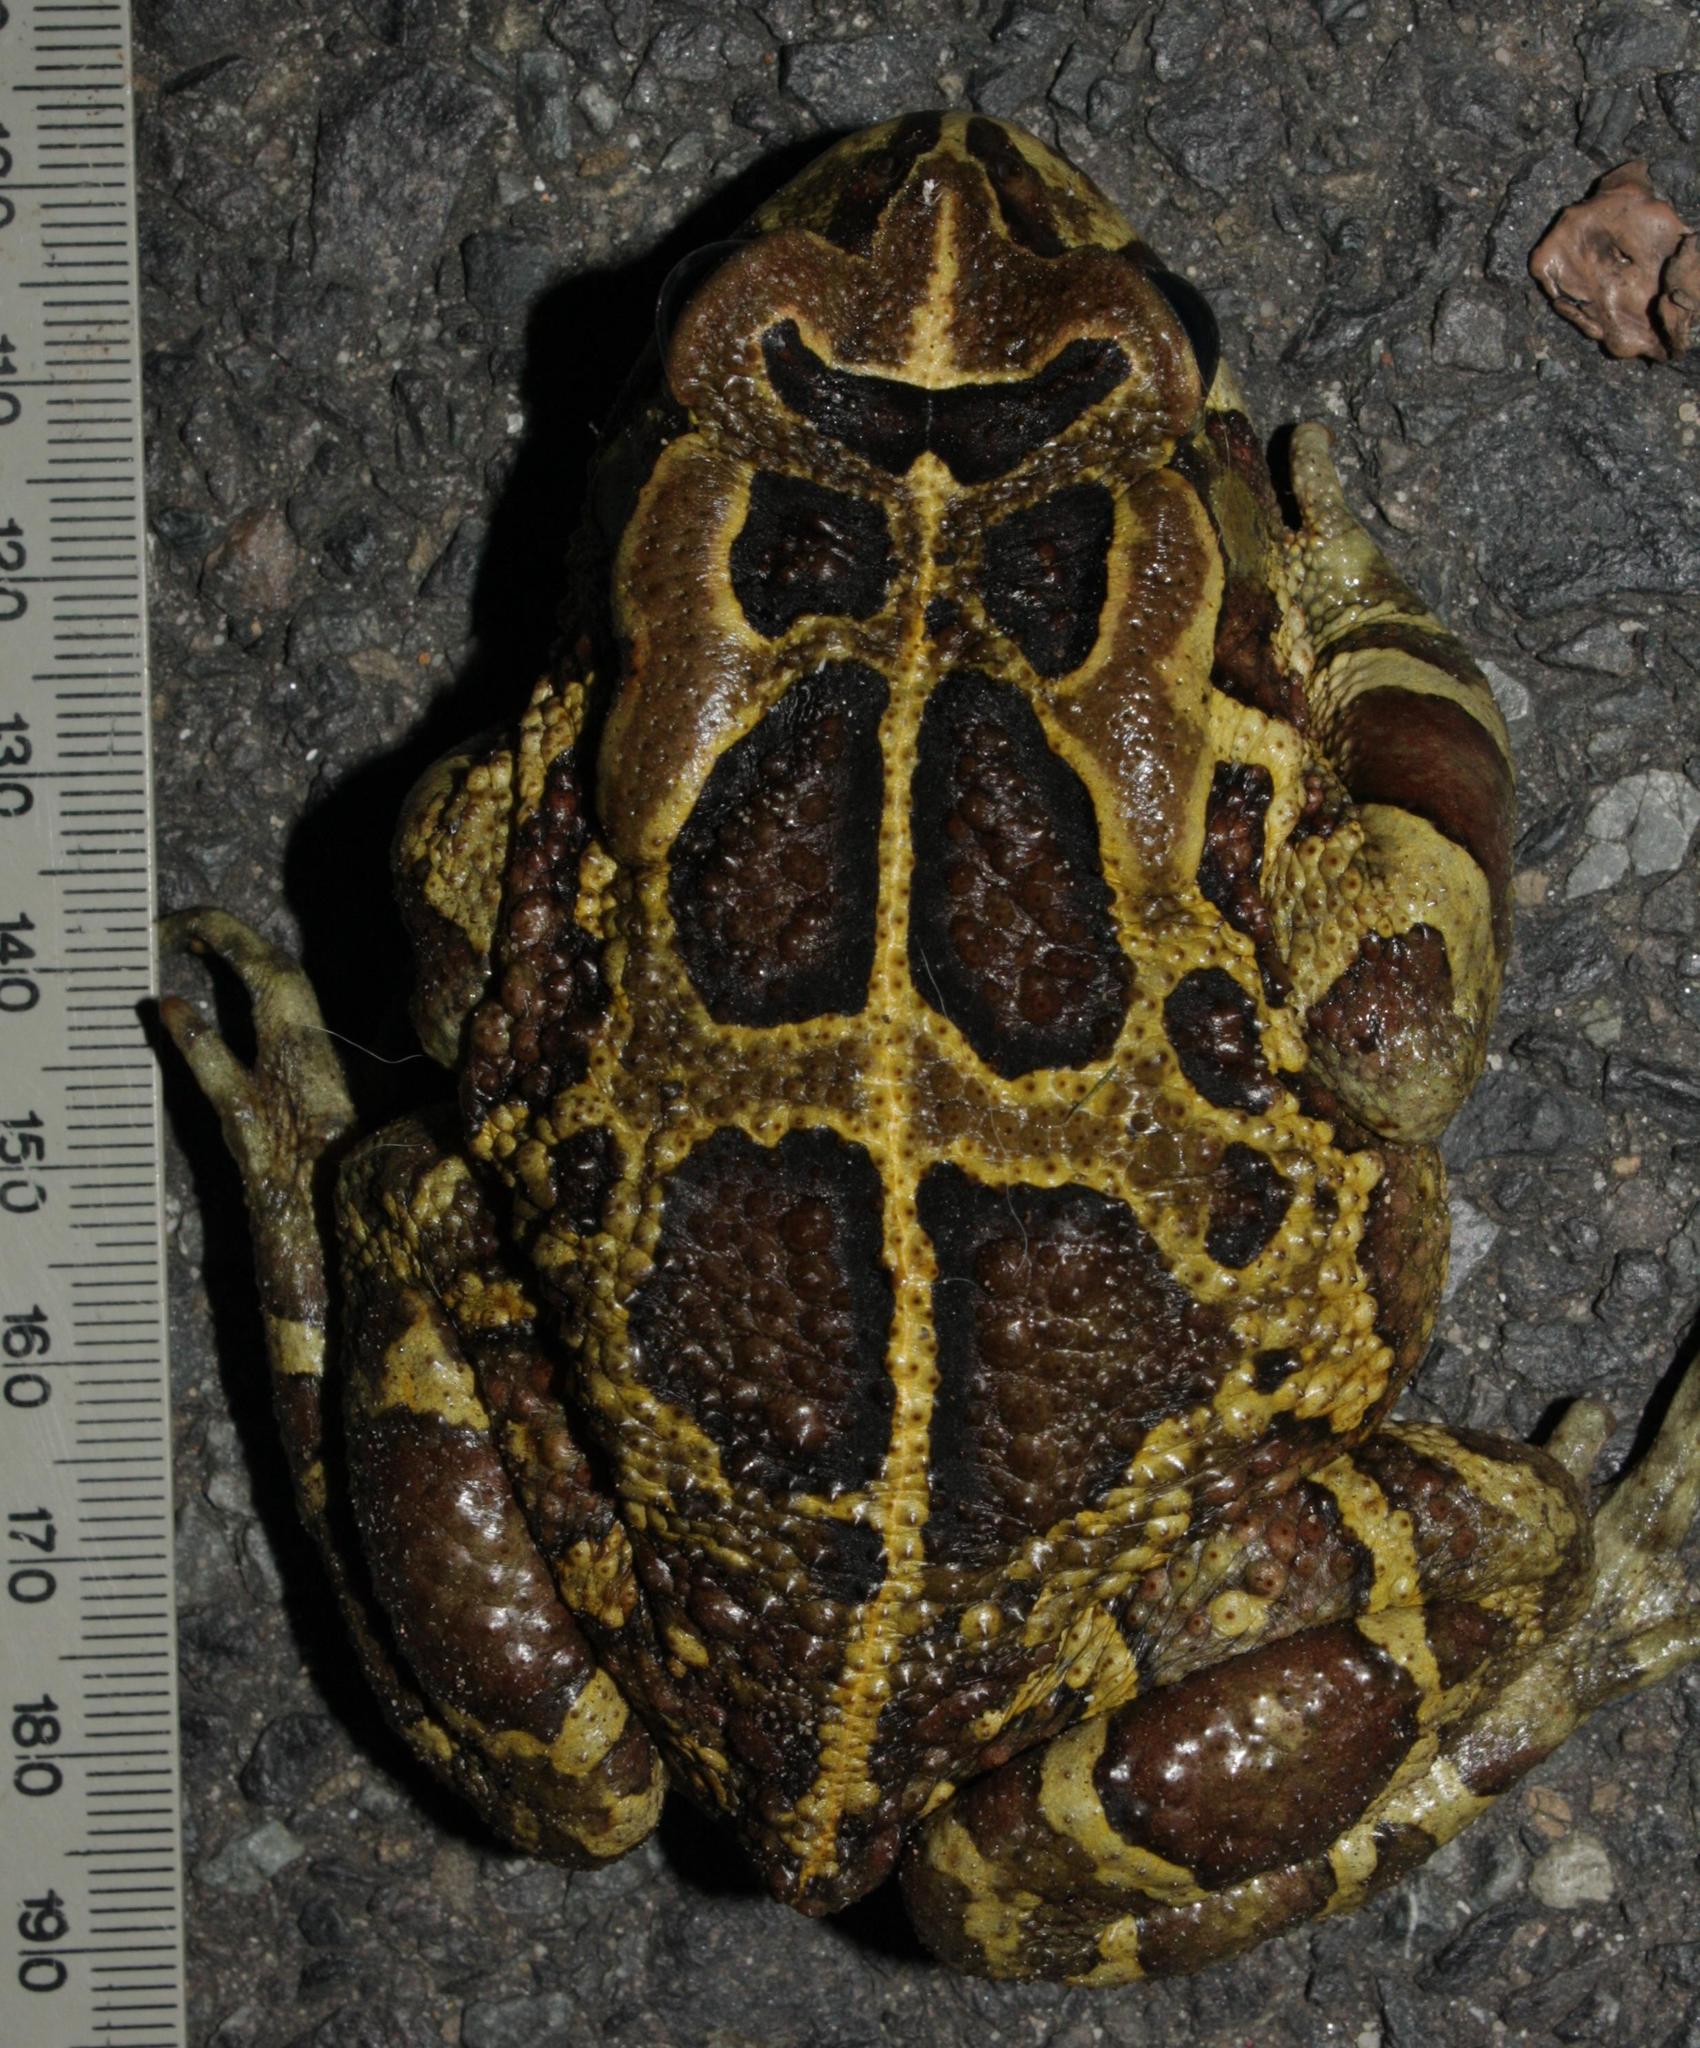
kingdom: Animalia
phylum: Chordata
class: Amphibia
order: Anura
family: Bufonidae
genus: Sclerophrys
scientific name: Sclerophrys pantherina
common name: Panther toad
